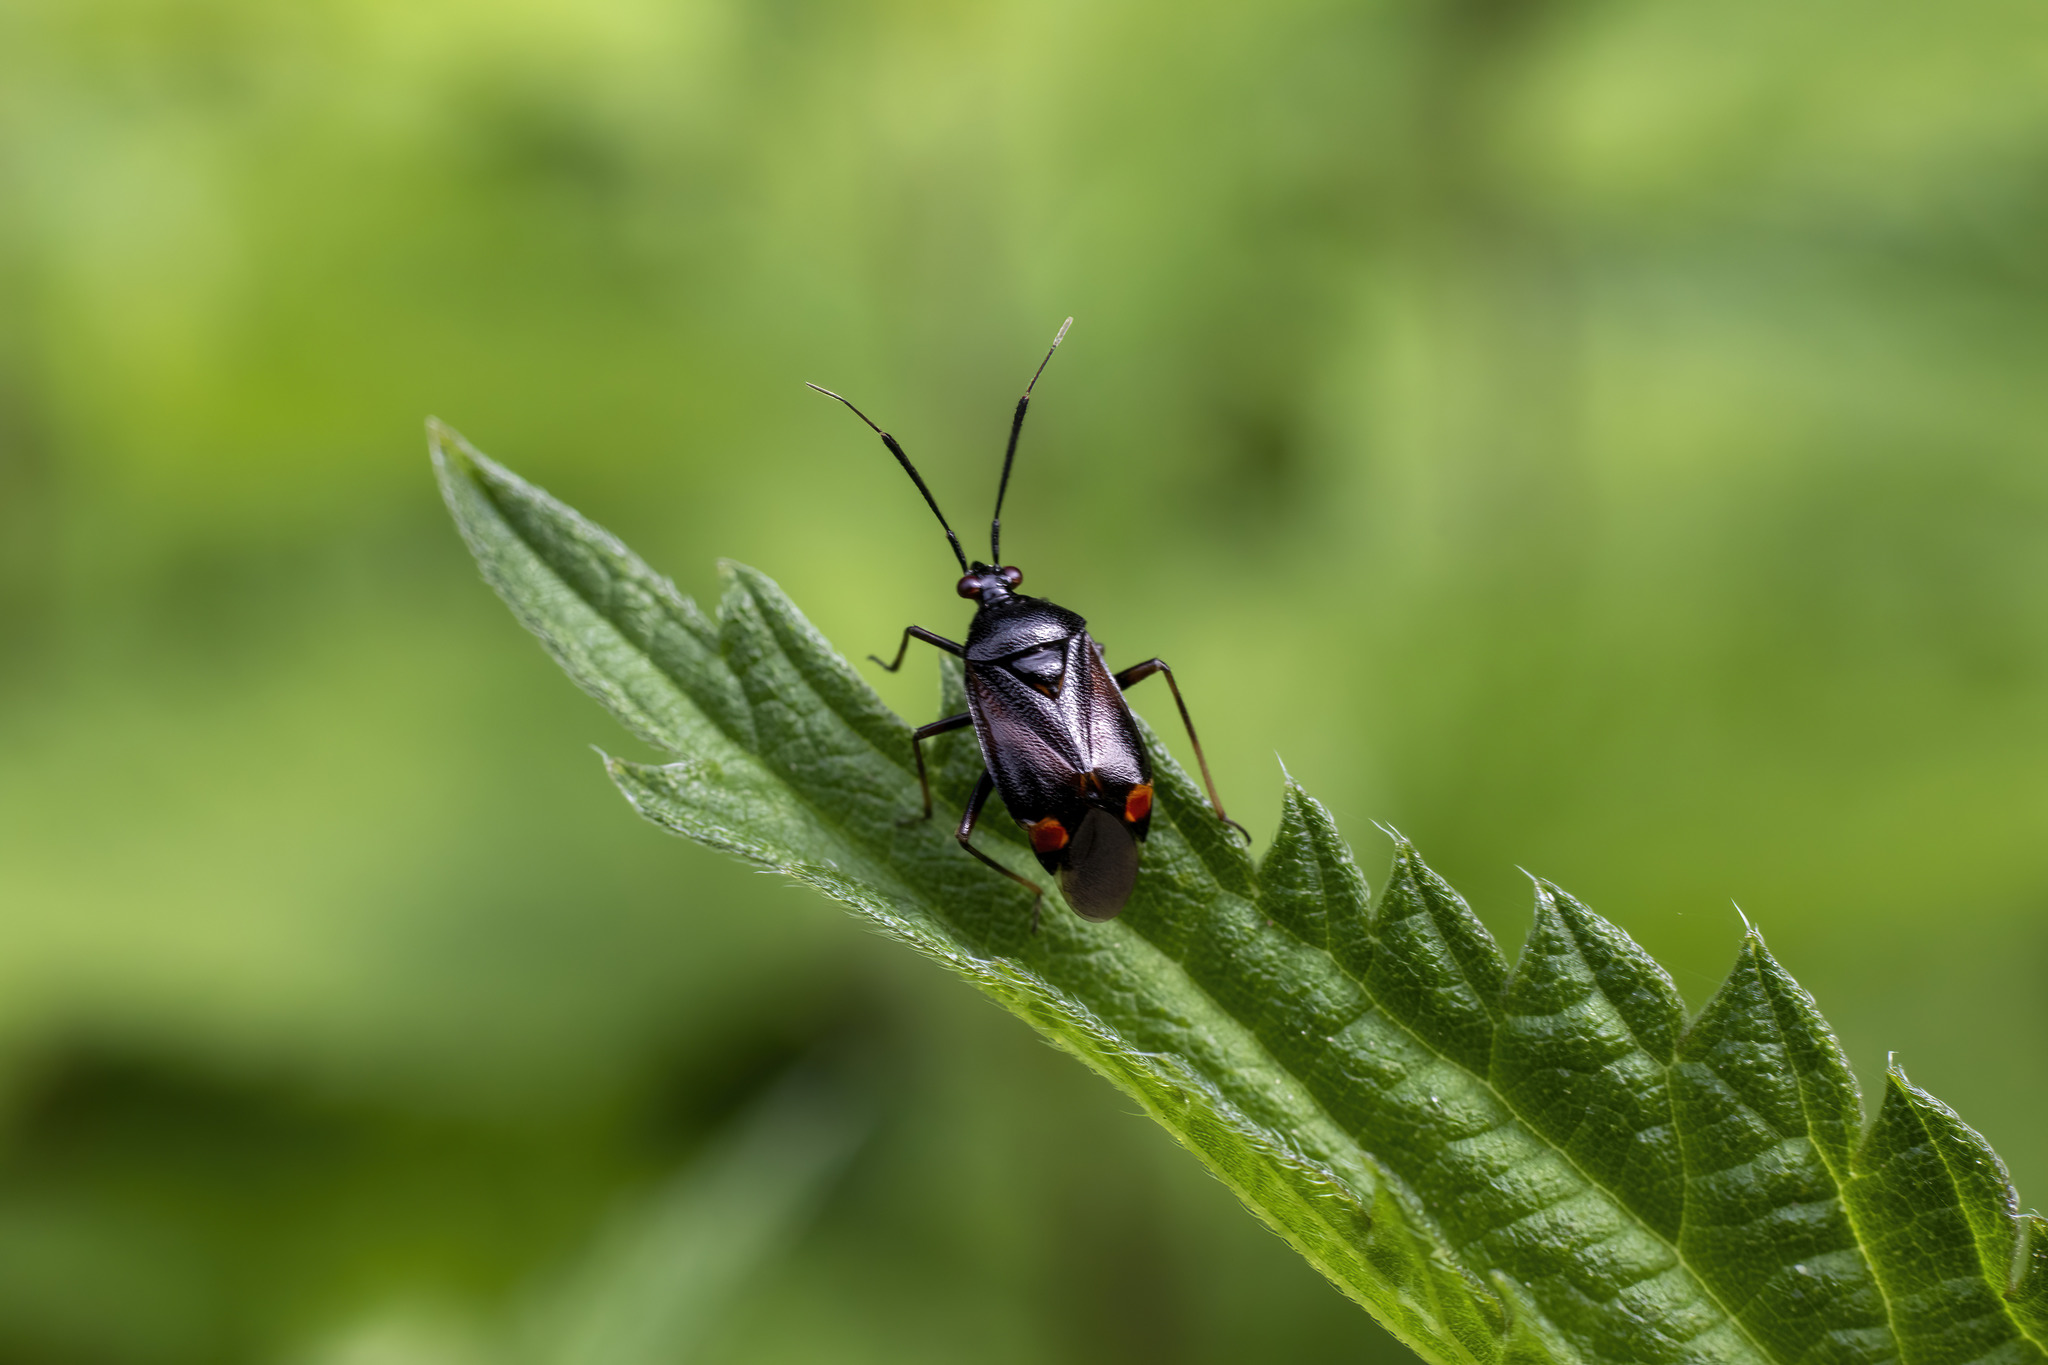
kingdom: Animalia
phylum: Arthropoda
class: Insecta
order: Hemiptera
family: Miridae
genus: Deraeocoris
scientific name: Deraeocoris ruber
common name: Plant bug
